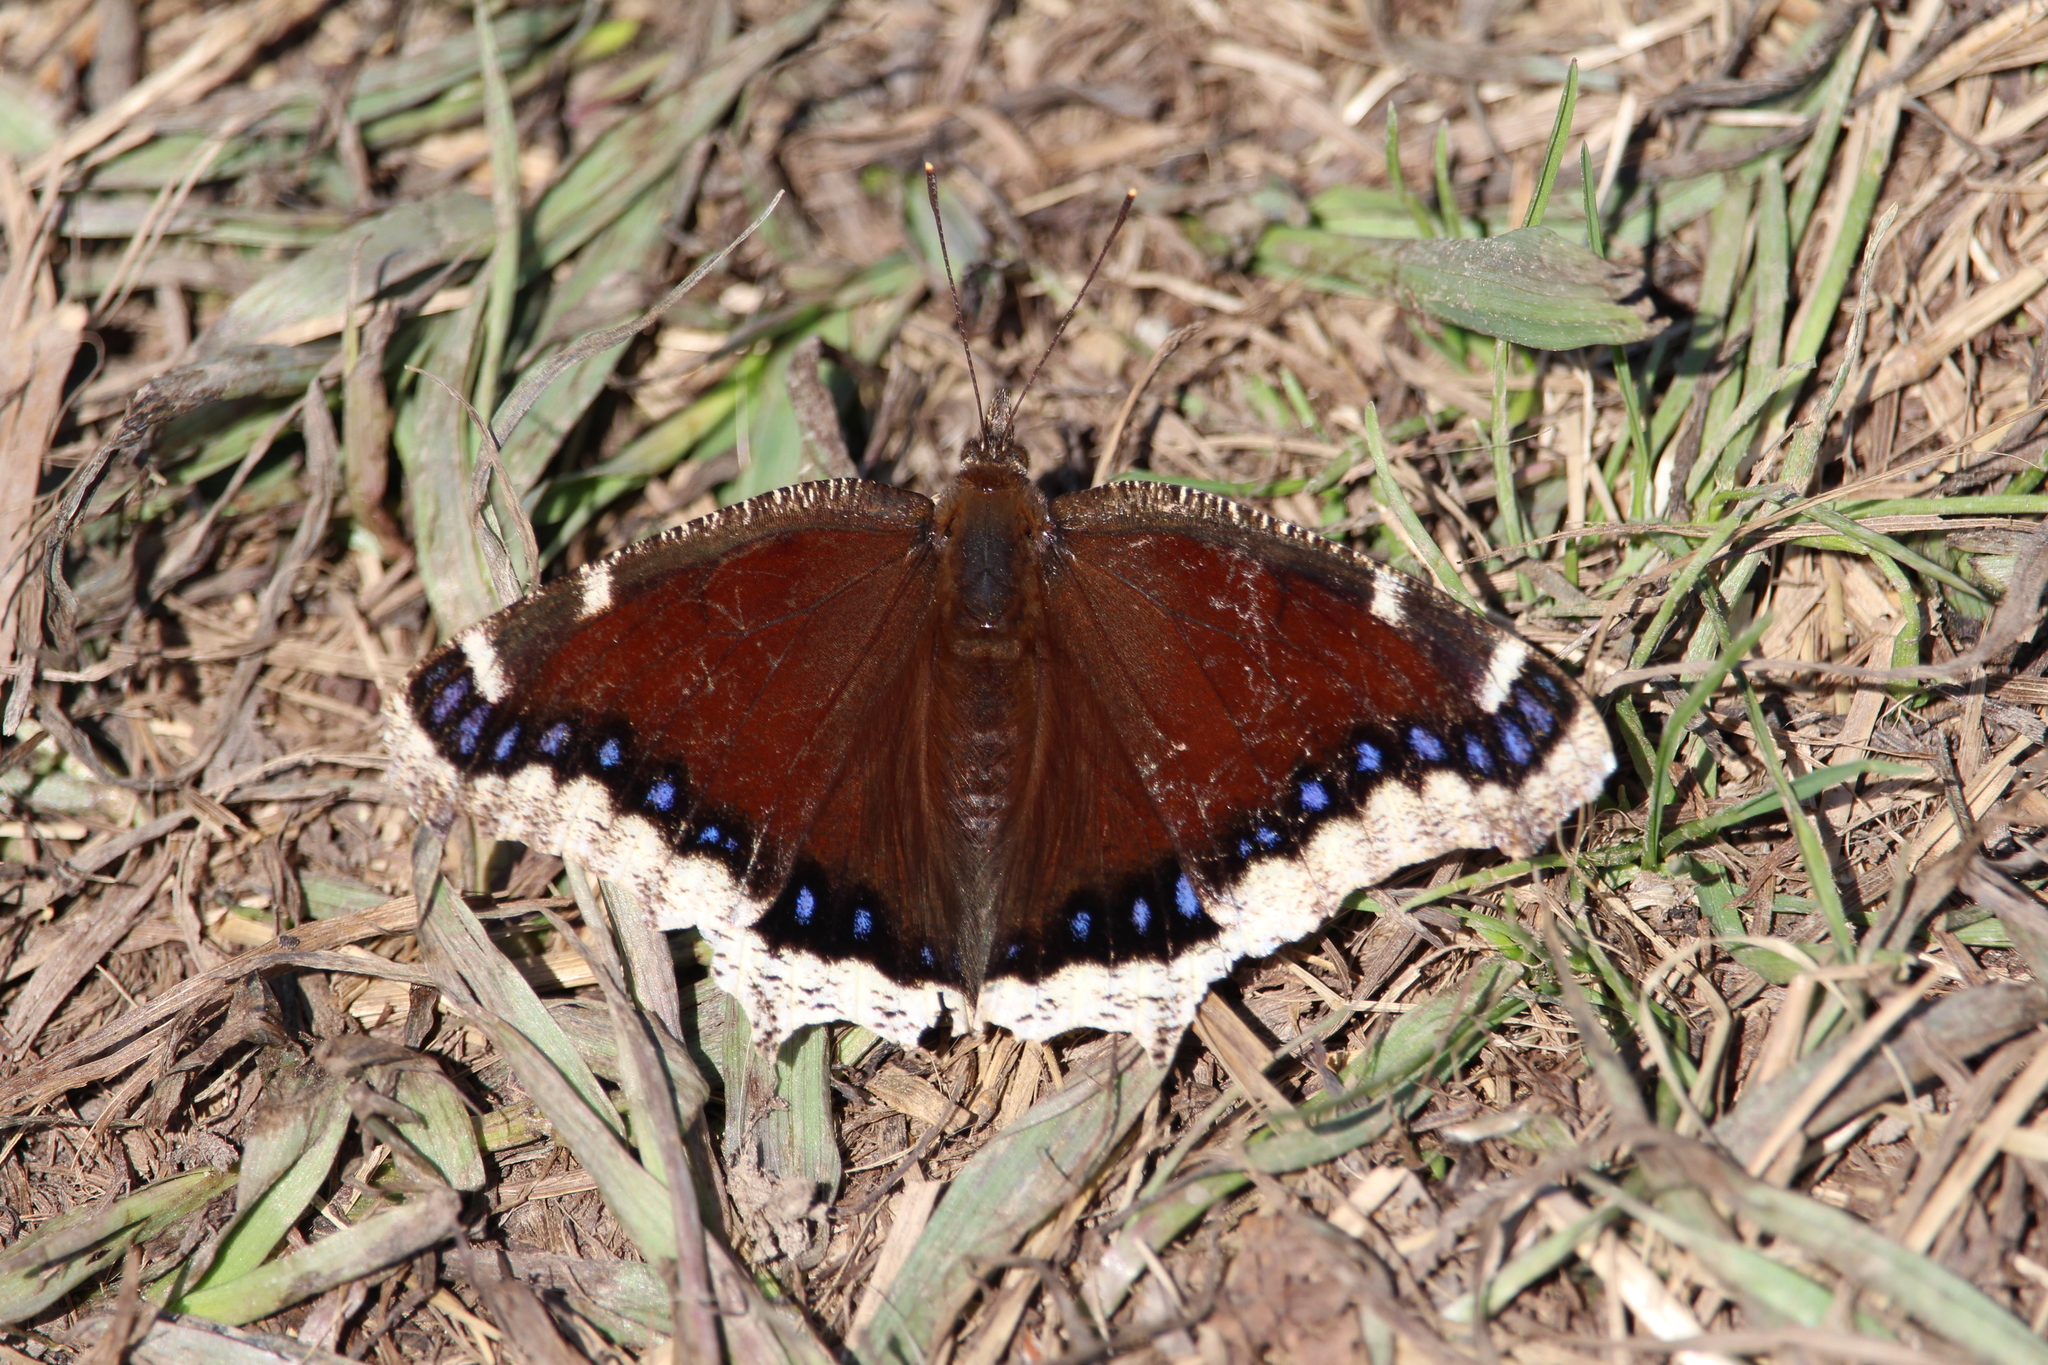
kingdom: Animalia
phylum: Arthropoda
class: Insecta
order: Lepidoptera
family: Nymphalidae
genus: Nymphalis
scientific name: Nymphalis antiopa
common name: Camberwell beauty
